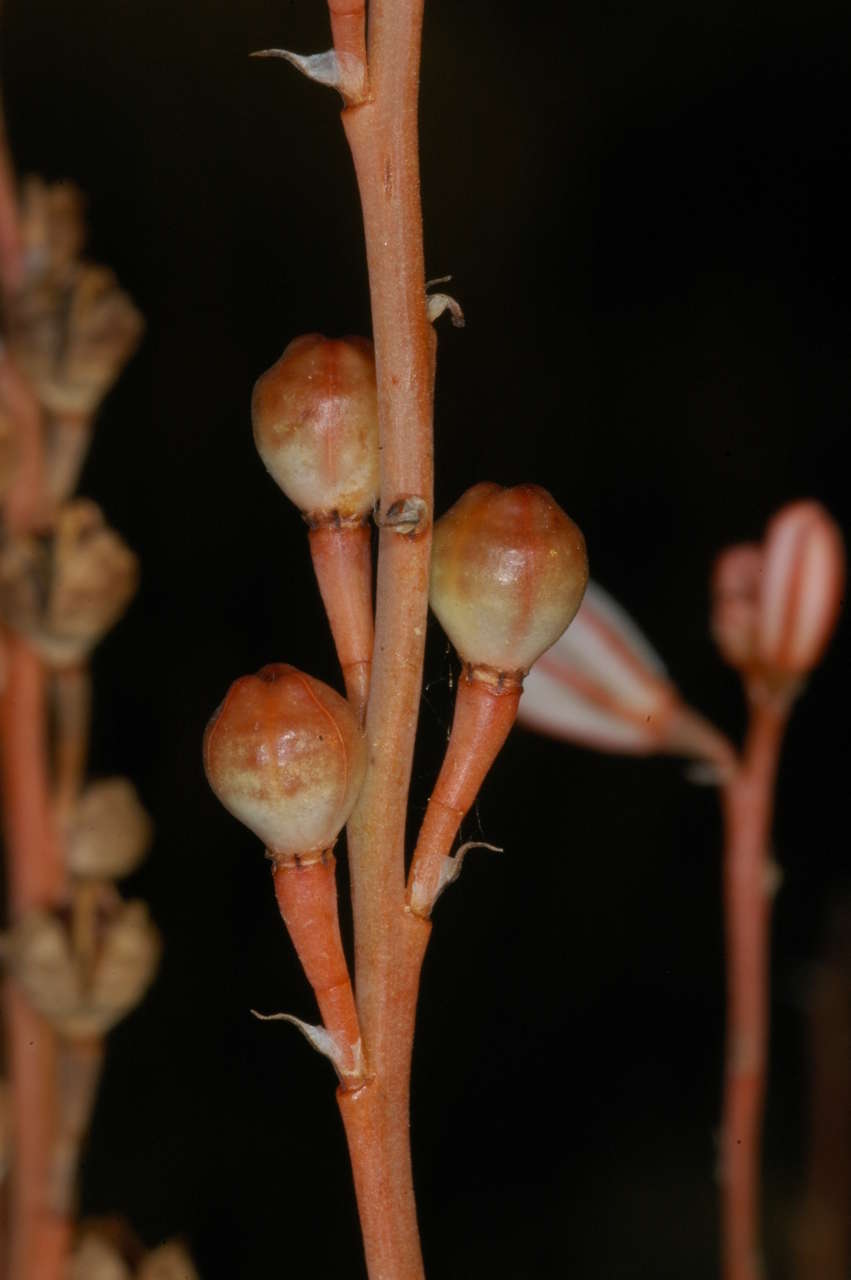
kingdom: Plantae
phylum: Tracheophyta
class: Liliopsida
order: Asparagales
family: Asphodelaceae
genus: Asphodelus
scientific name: Asphodelus fistulosus
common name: Onionweed
